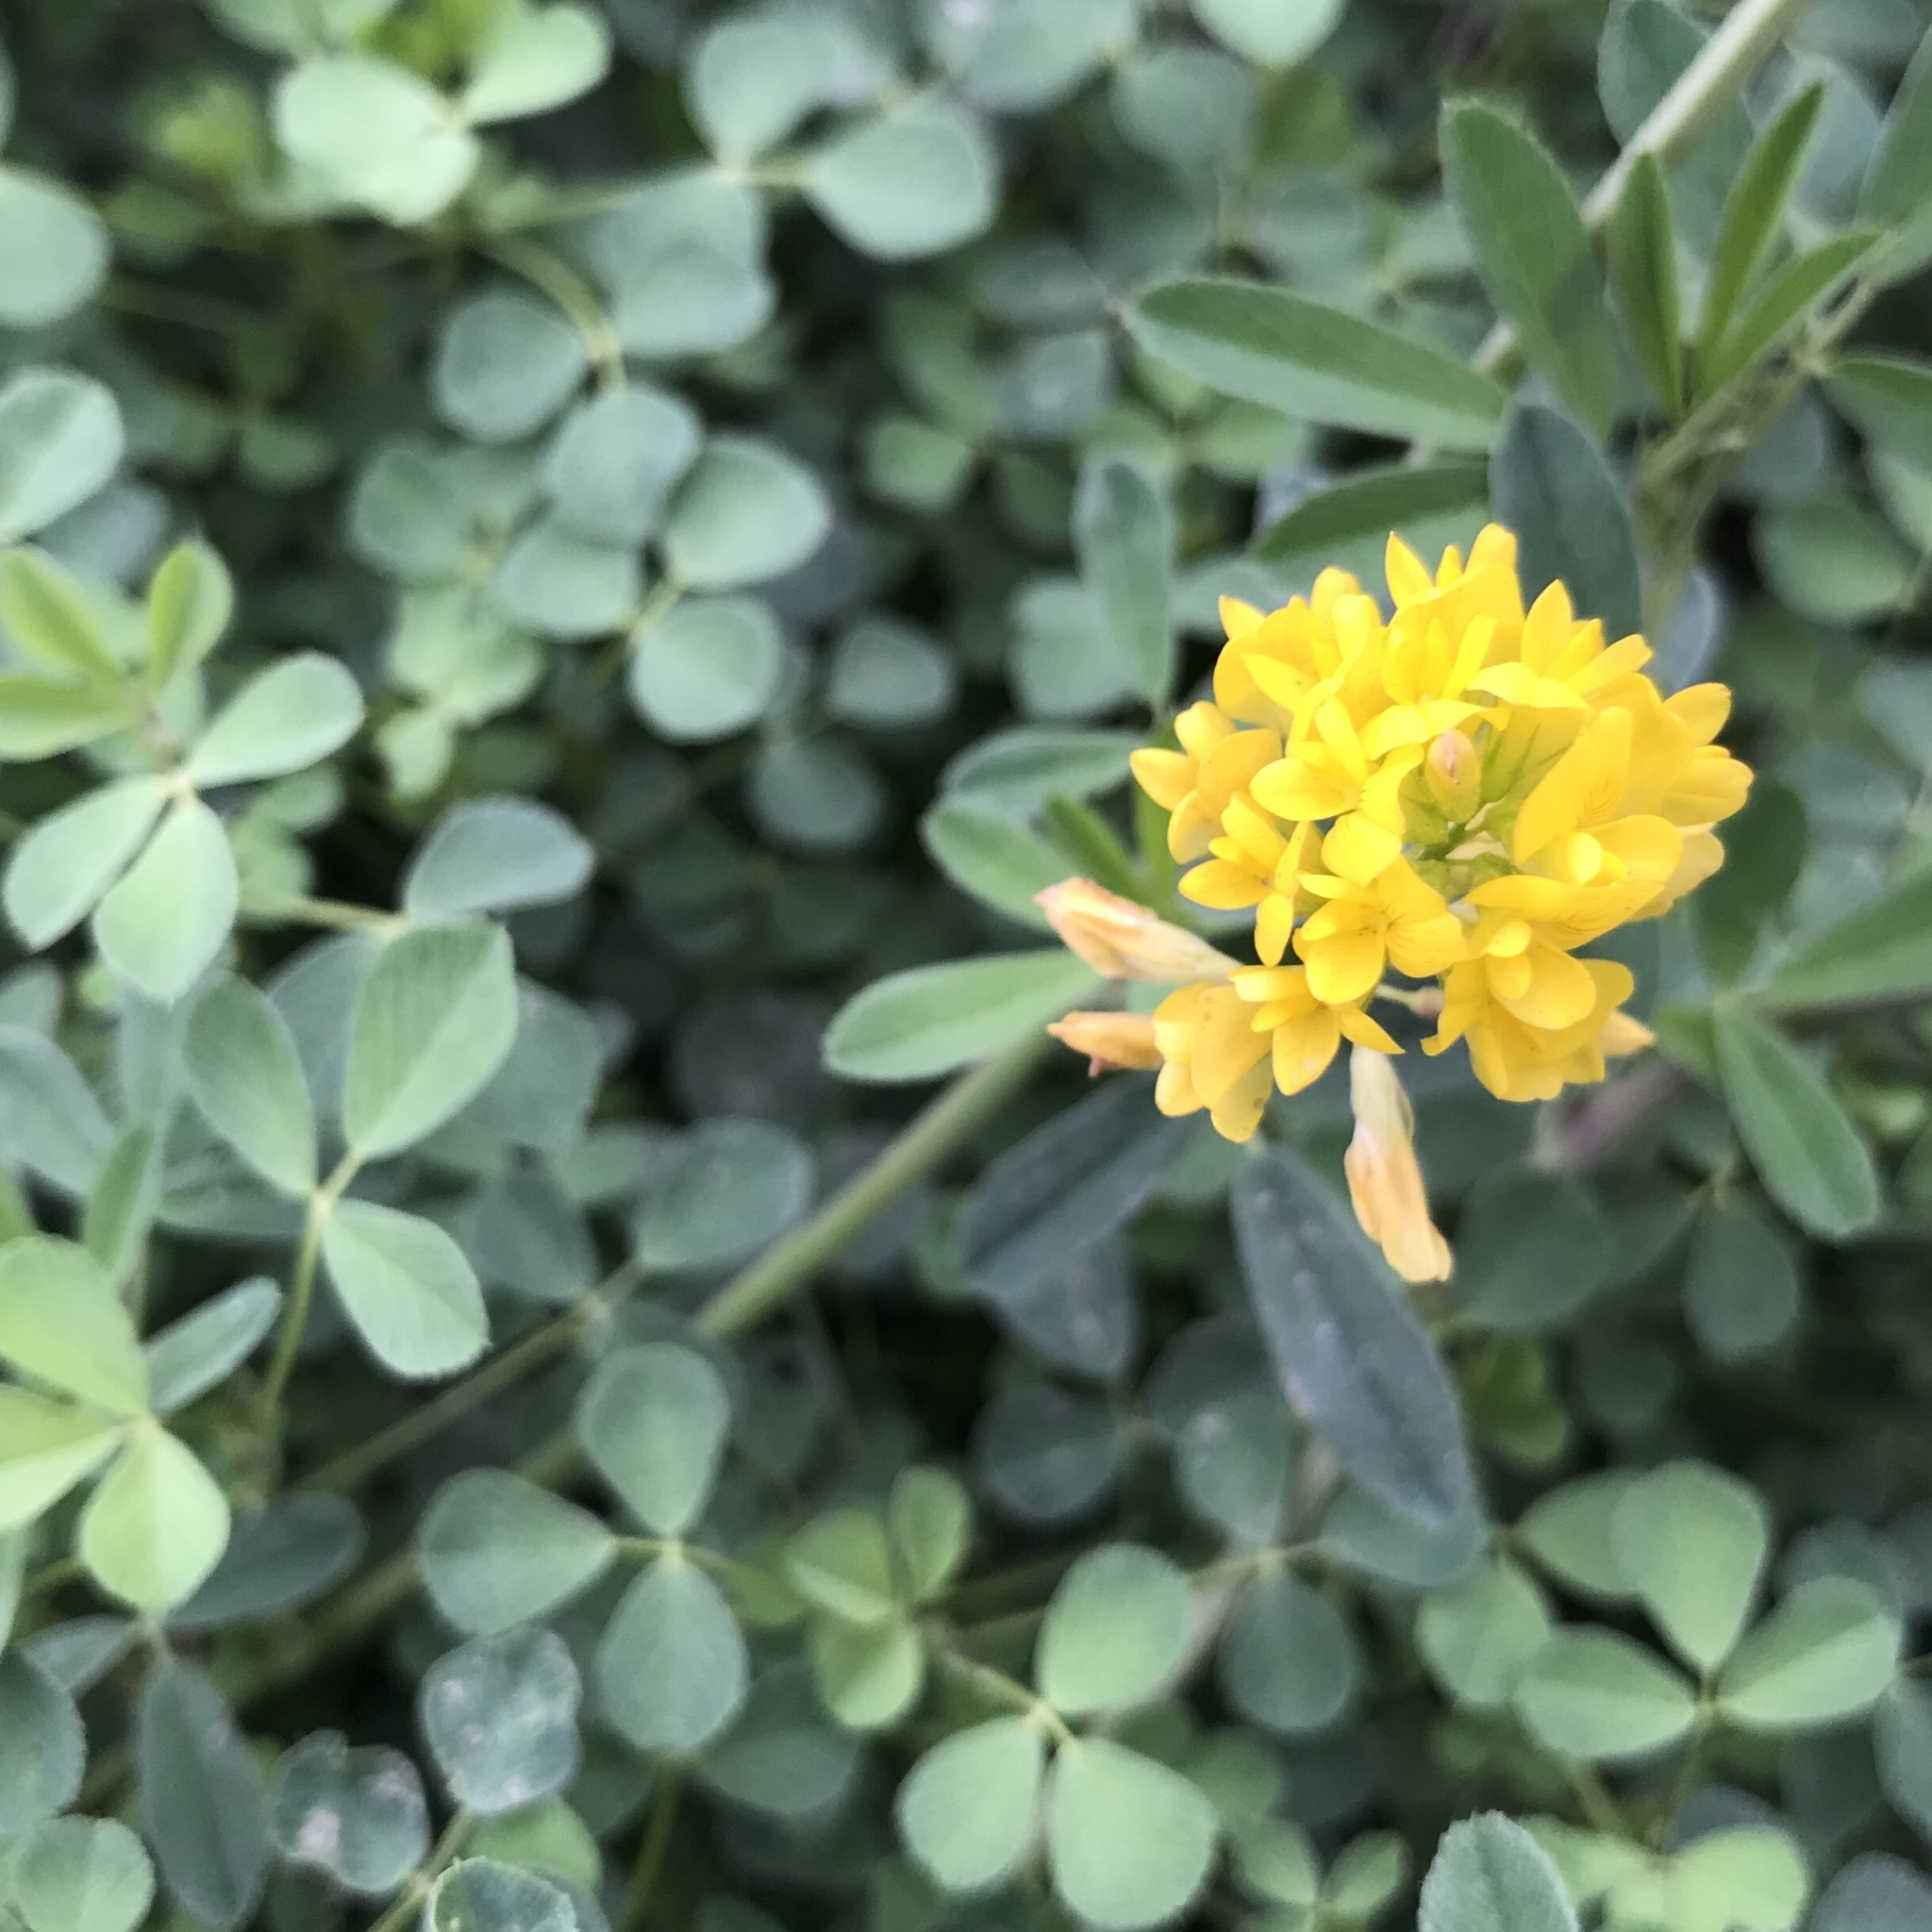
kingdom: Plantae
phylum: Tracheophyta
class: Magnoliopsida
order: Fabales
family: Fabaceae
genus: Medicago
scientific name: Medicago falcata
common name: Sickle medick
